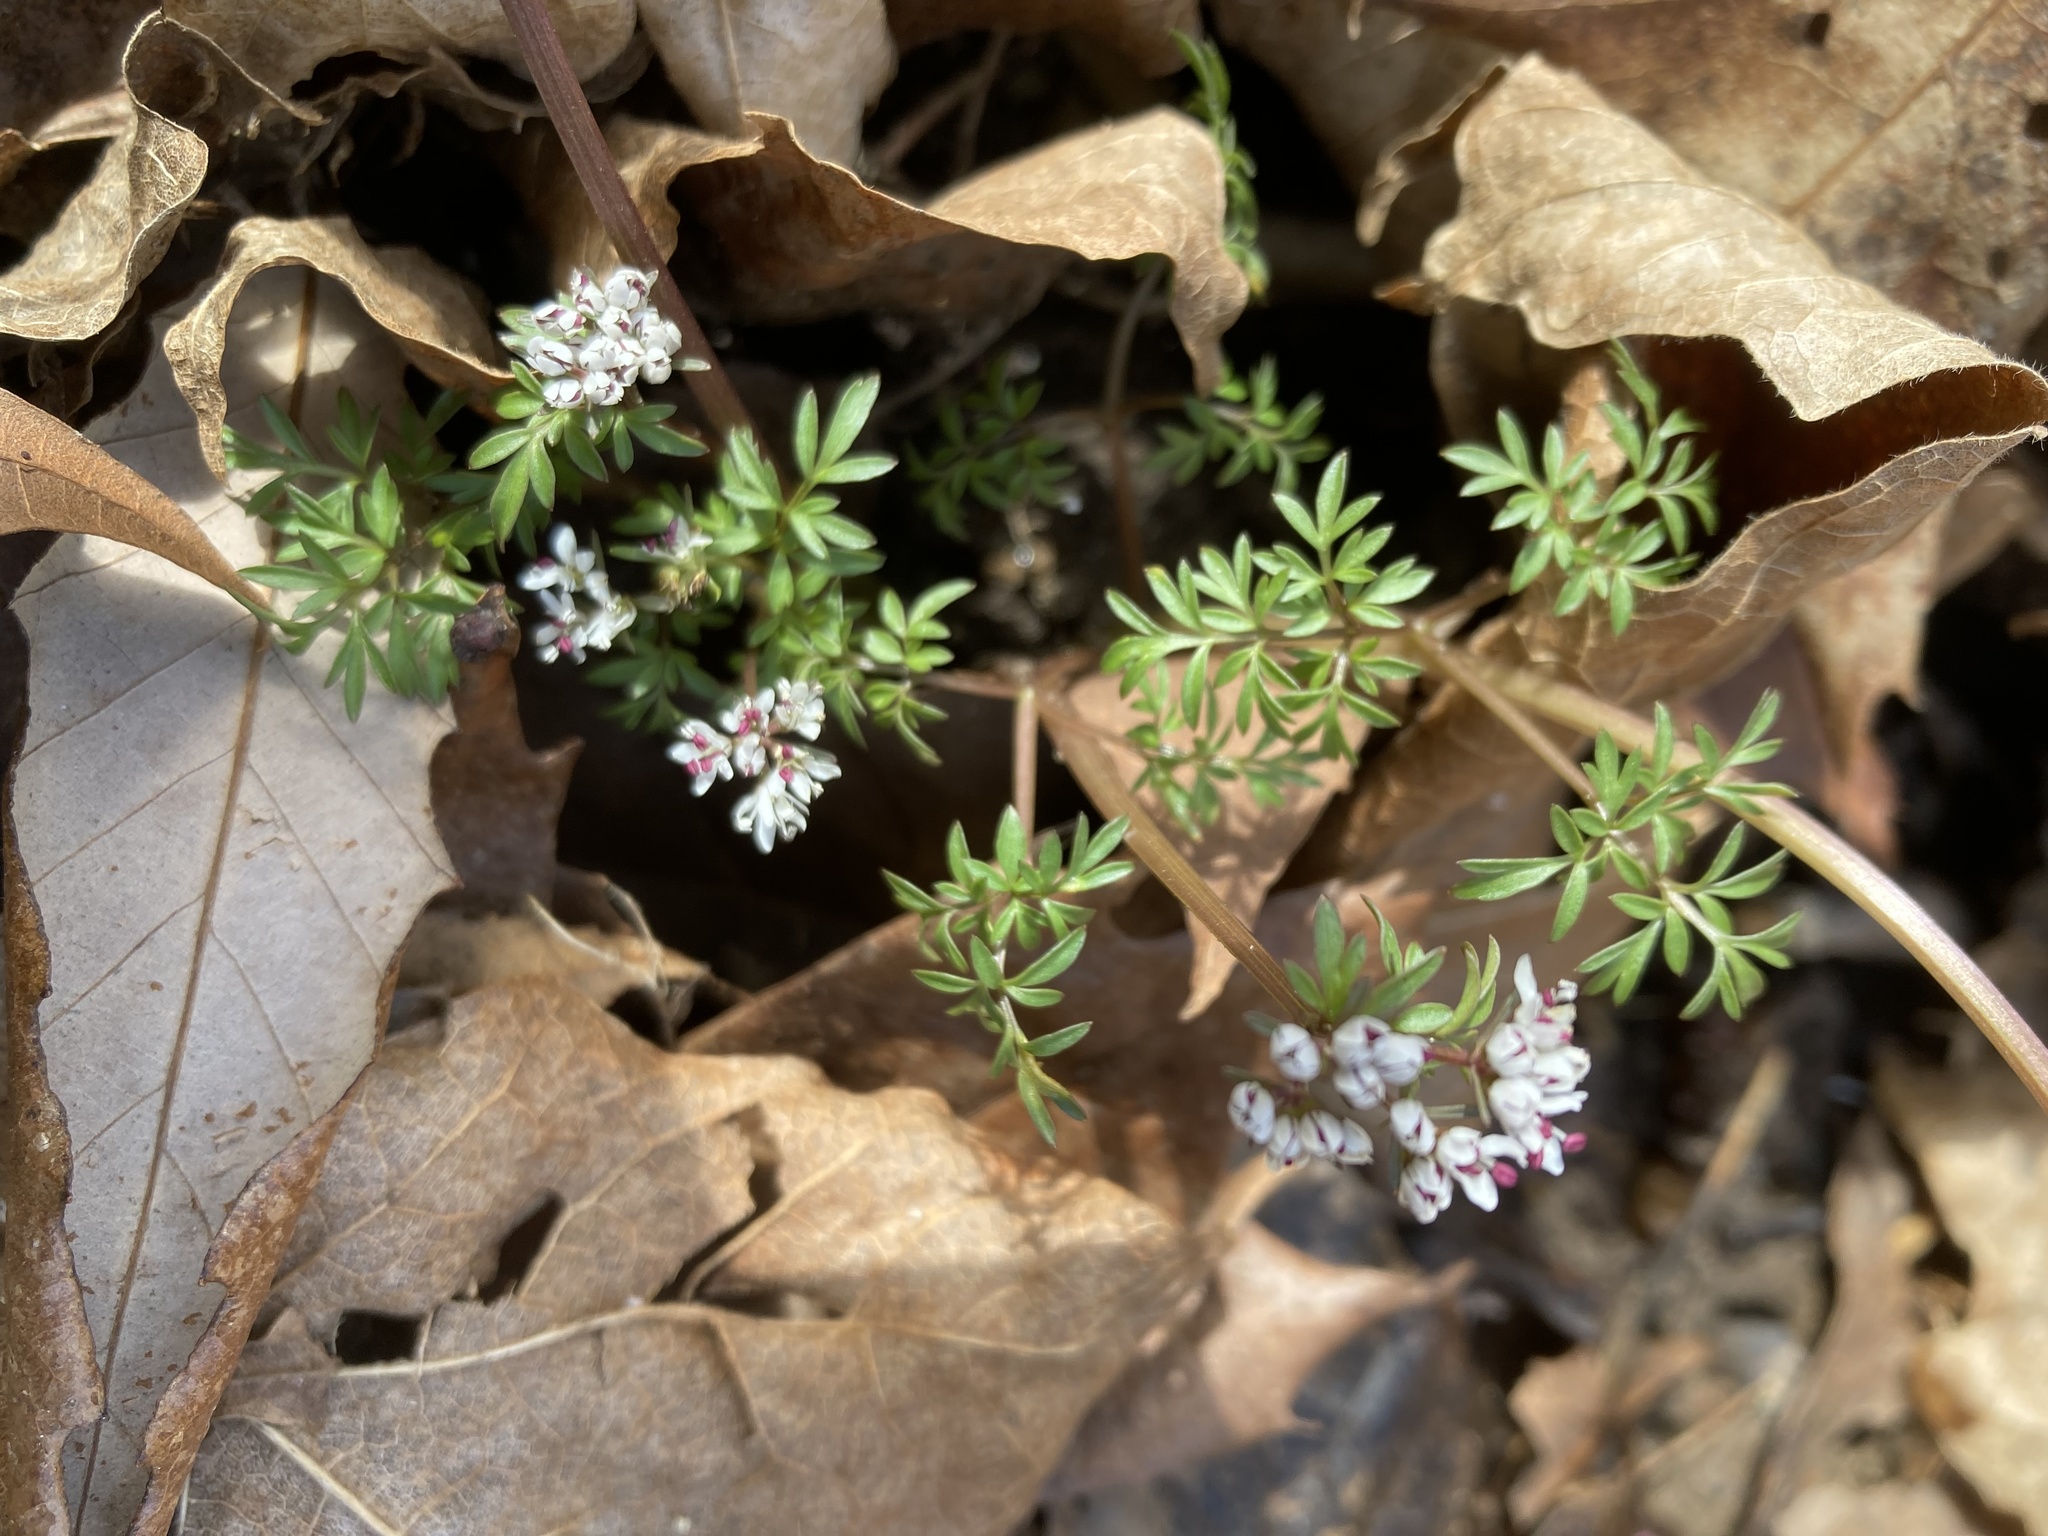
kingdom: Plantae
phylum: Tracheophyta
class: Magnoliopsida
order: Apiales
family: Apiaceae
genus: Erigenia
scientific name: Erigenia bulbosa
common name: Pepper-and-salt
